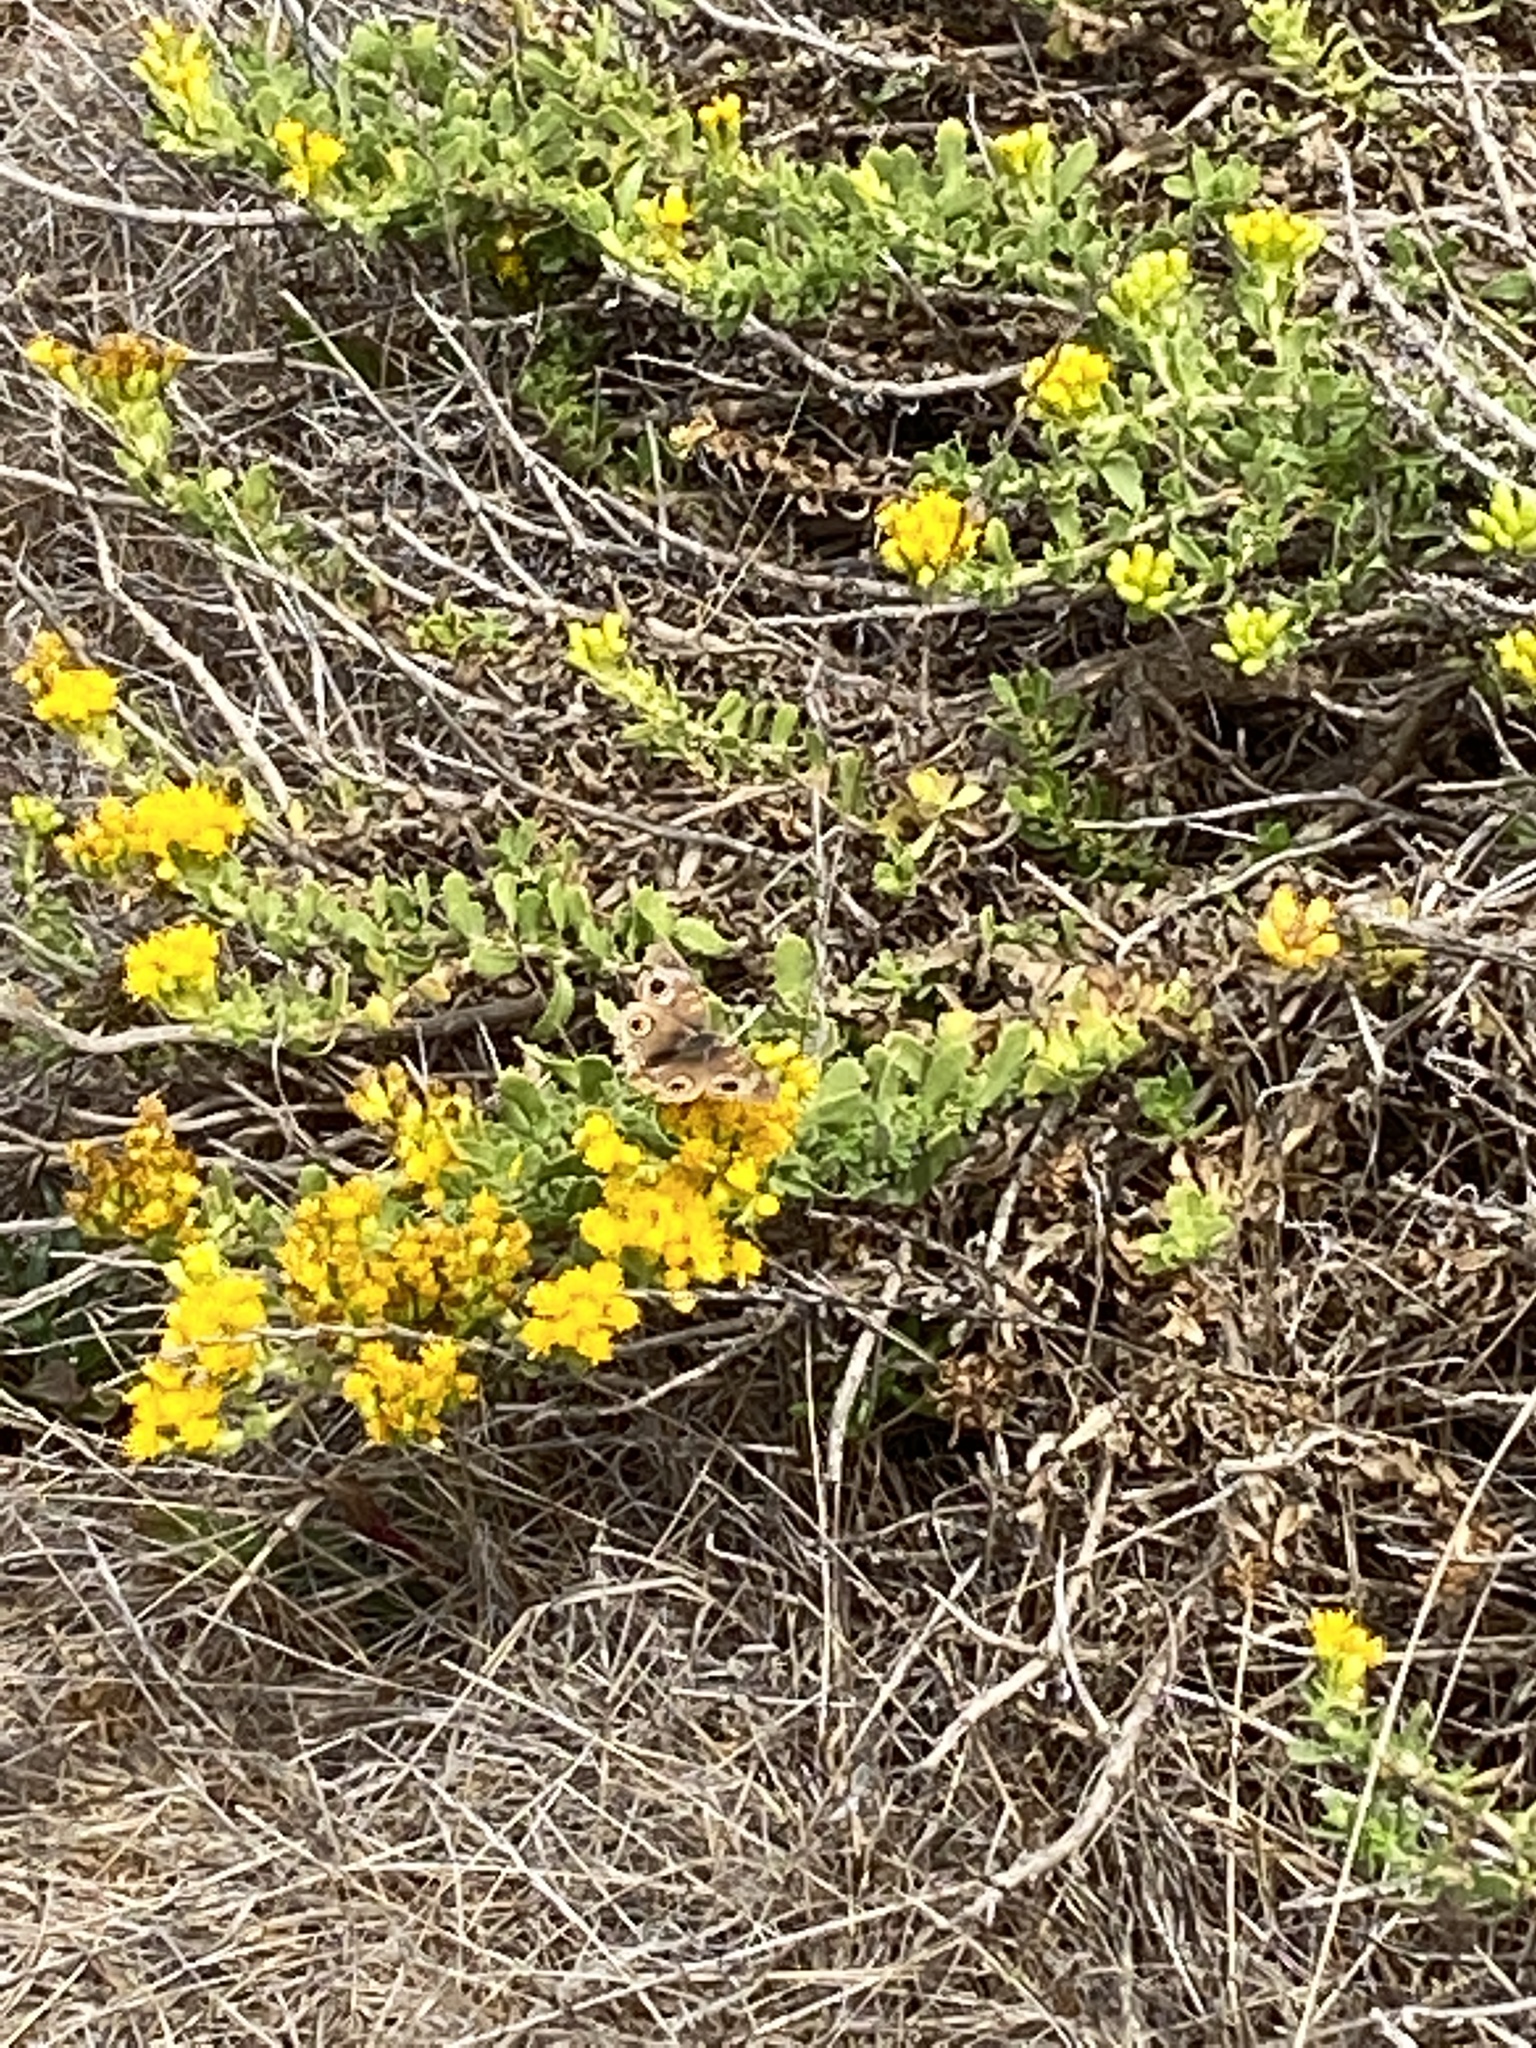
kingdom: Plantae
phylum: Tracheophyta
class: Magnoliopsida
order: Asterales
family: Asteraceae
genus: Isocoma
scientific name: Isocoma menziesii
